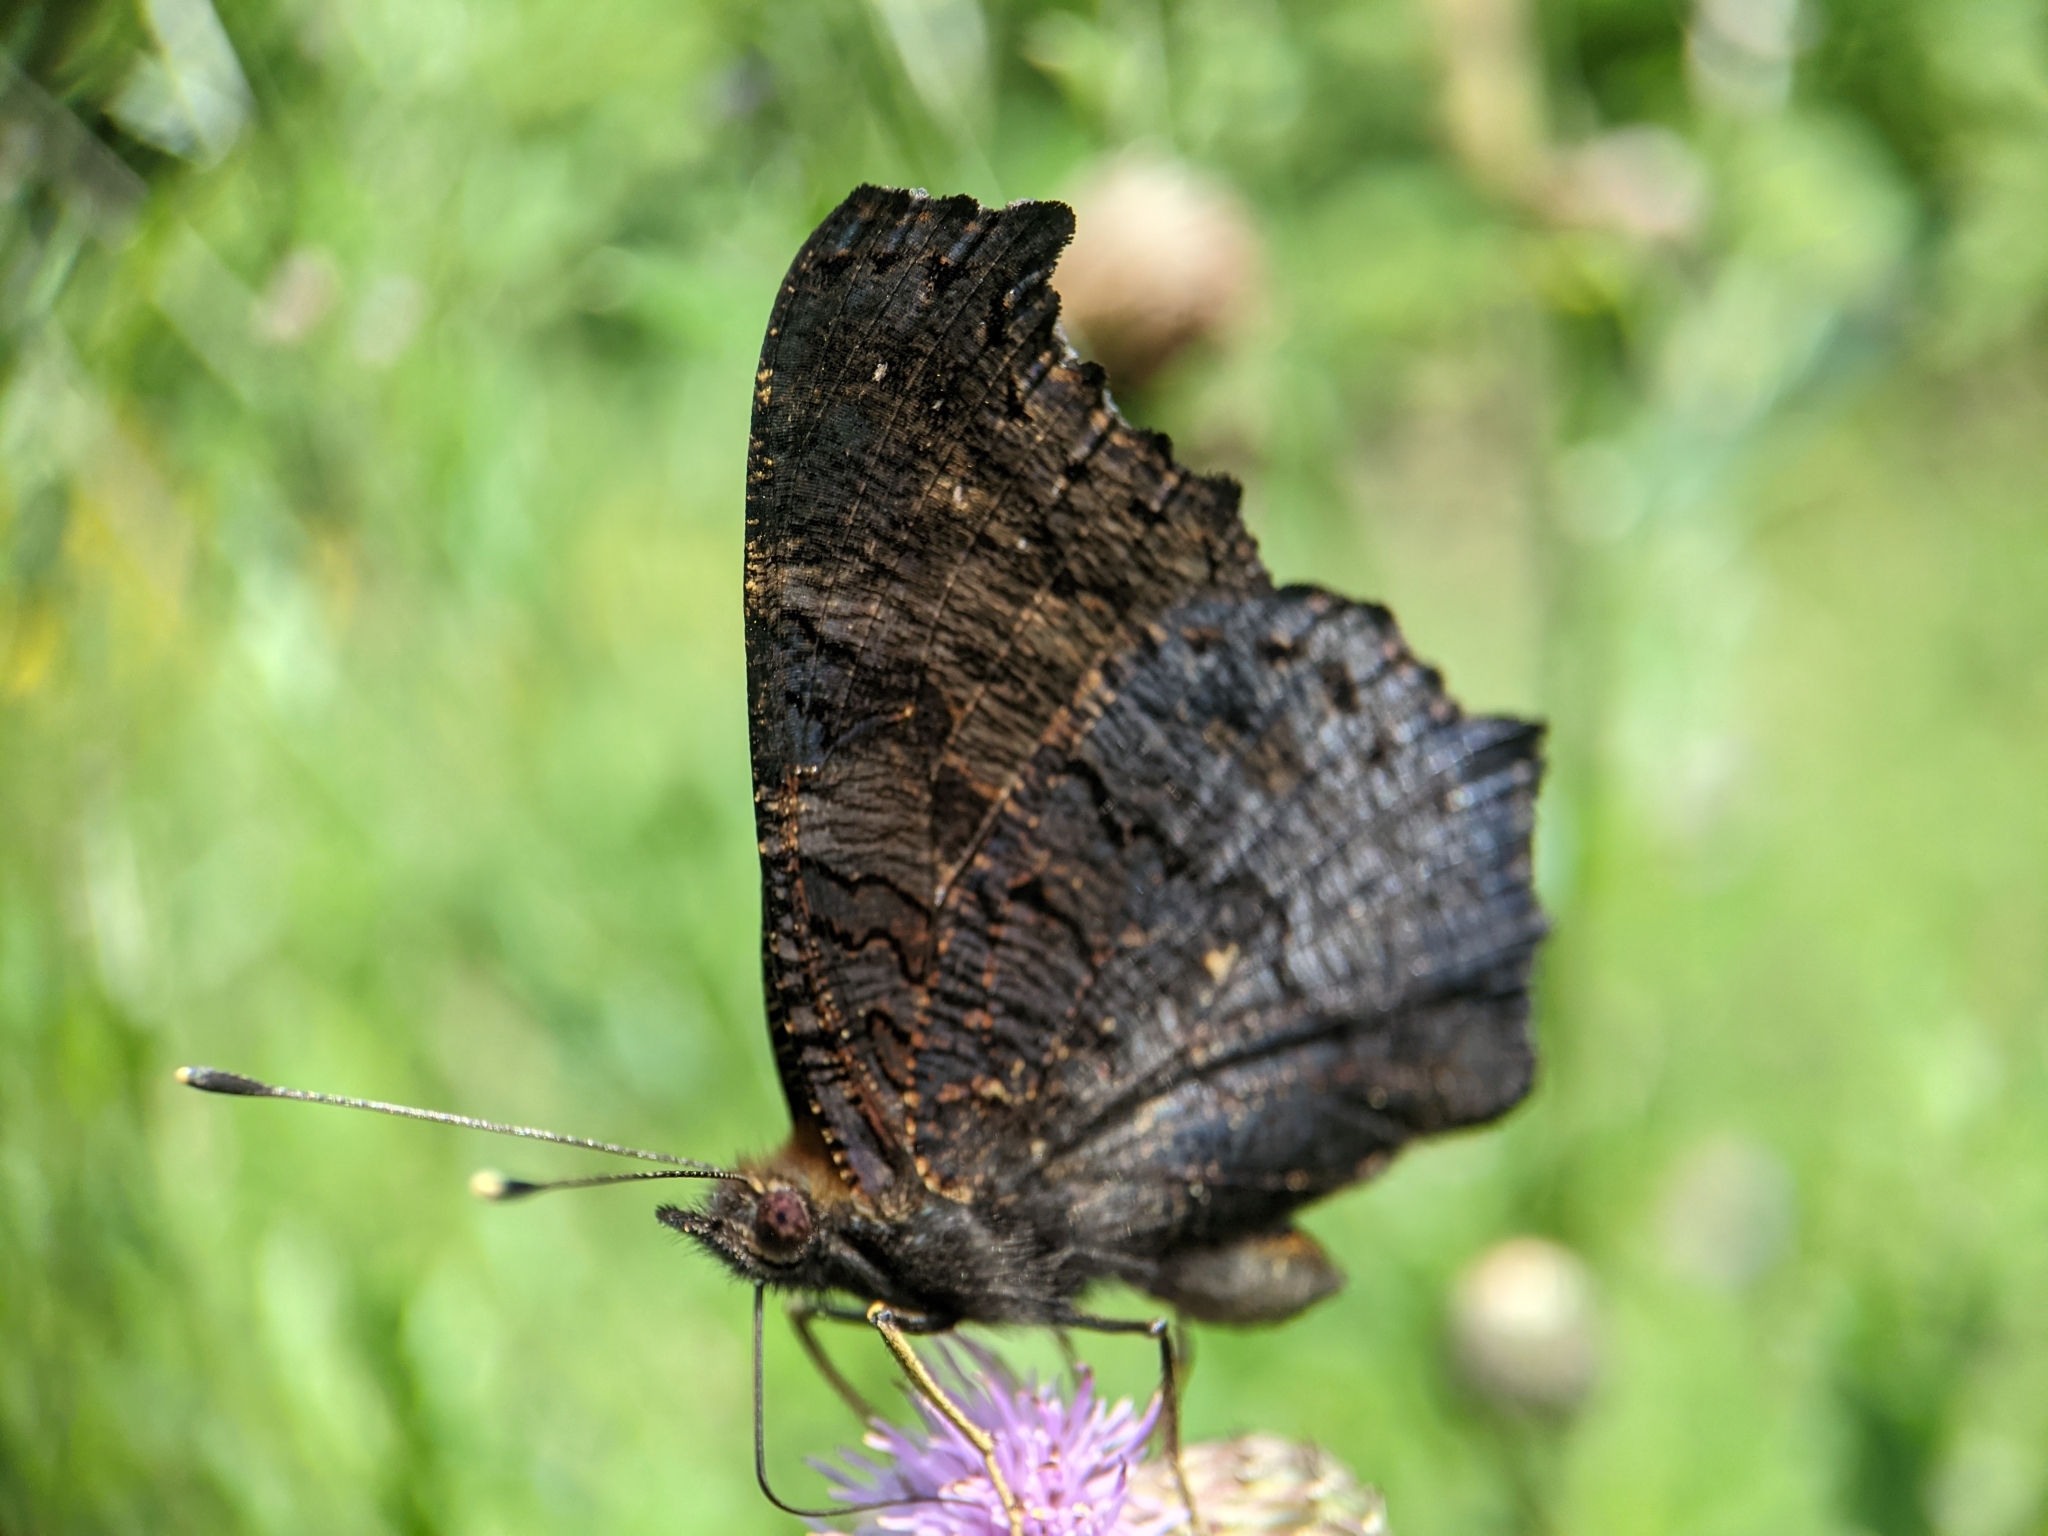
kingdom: Animalia
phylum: Arthropoda
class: Insecta
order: Lepidoptera
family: Nymphalidae
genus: Aglais
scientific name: Aglais io
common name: Peacock
